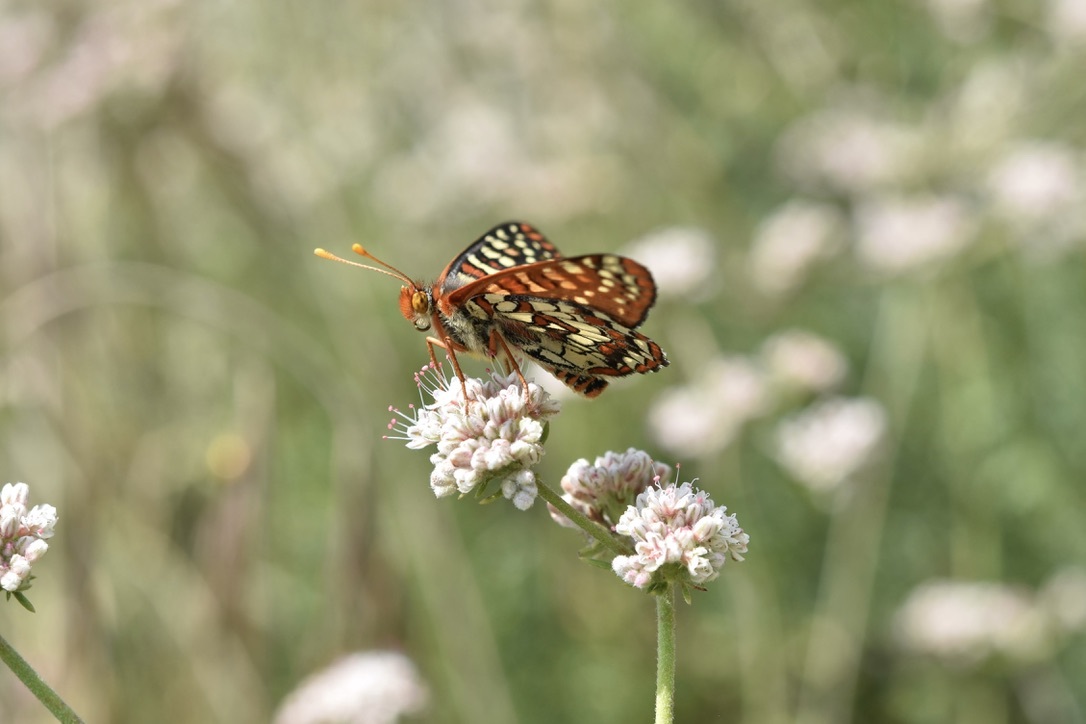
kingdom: Animalia
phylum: Arthropoda
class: Insecta
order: Lepidoptera
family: Nymphalidae
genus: Occidryas
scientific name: Occidryas chalcedona
